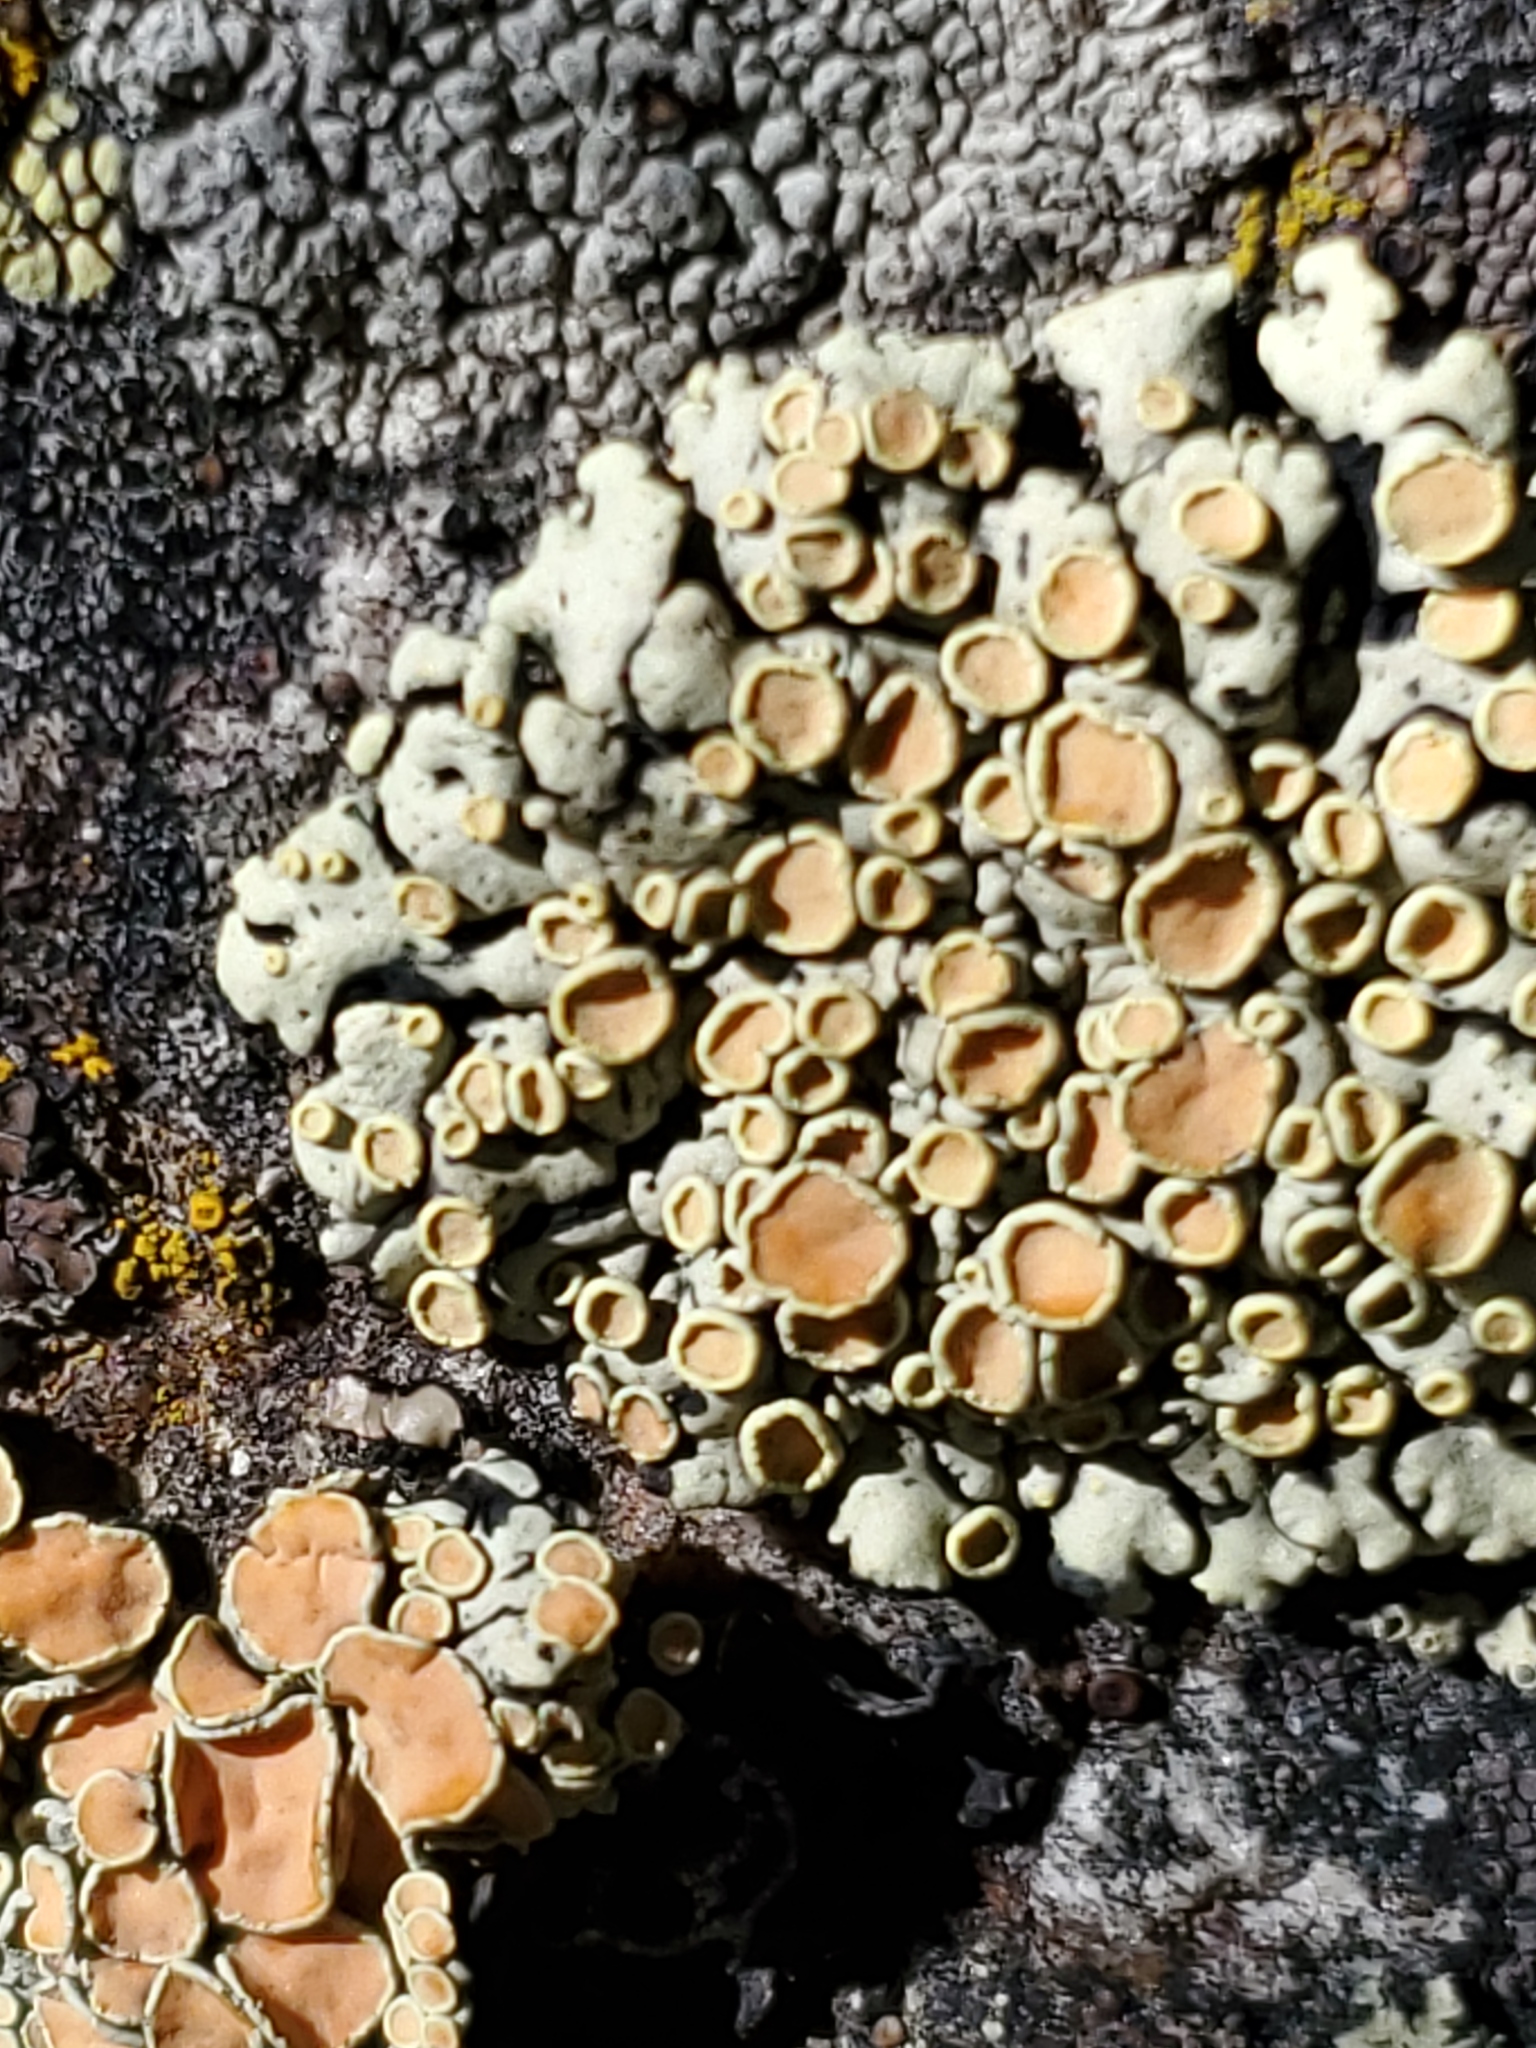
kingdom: Fungi
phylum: Ascomycota
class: Lecanoromycetes
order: Lecanorales
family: Lecanoraceae
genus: Omphalodina
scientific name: Omphalodina chrysoleuca
